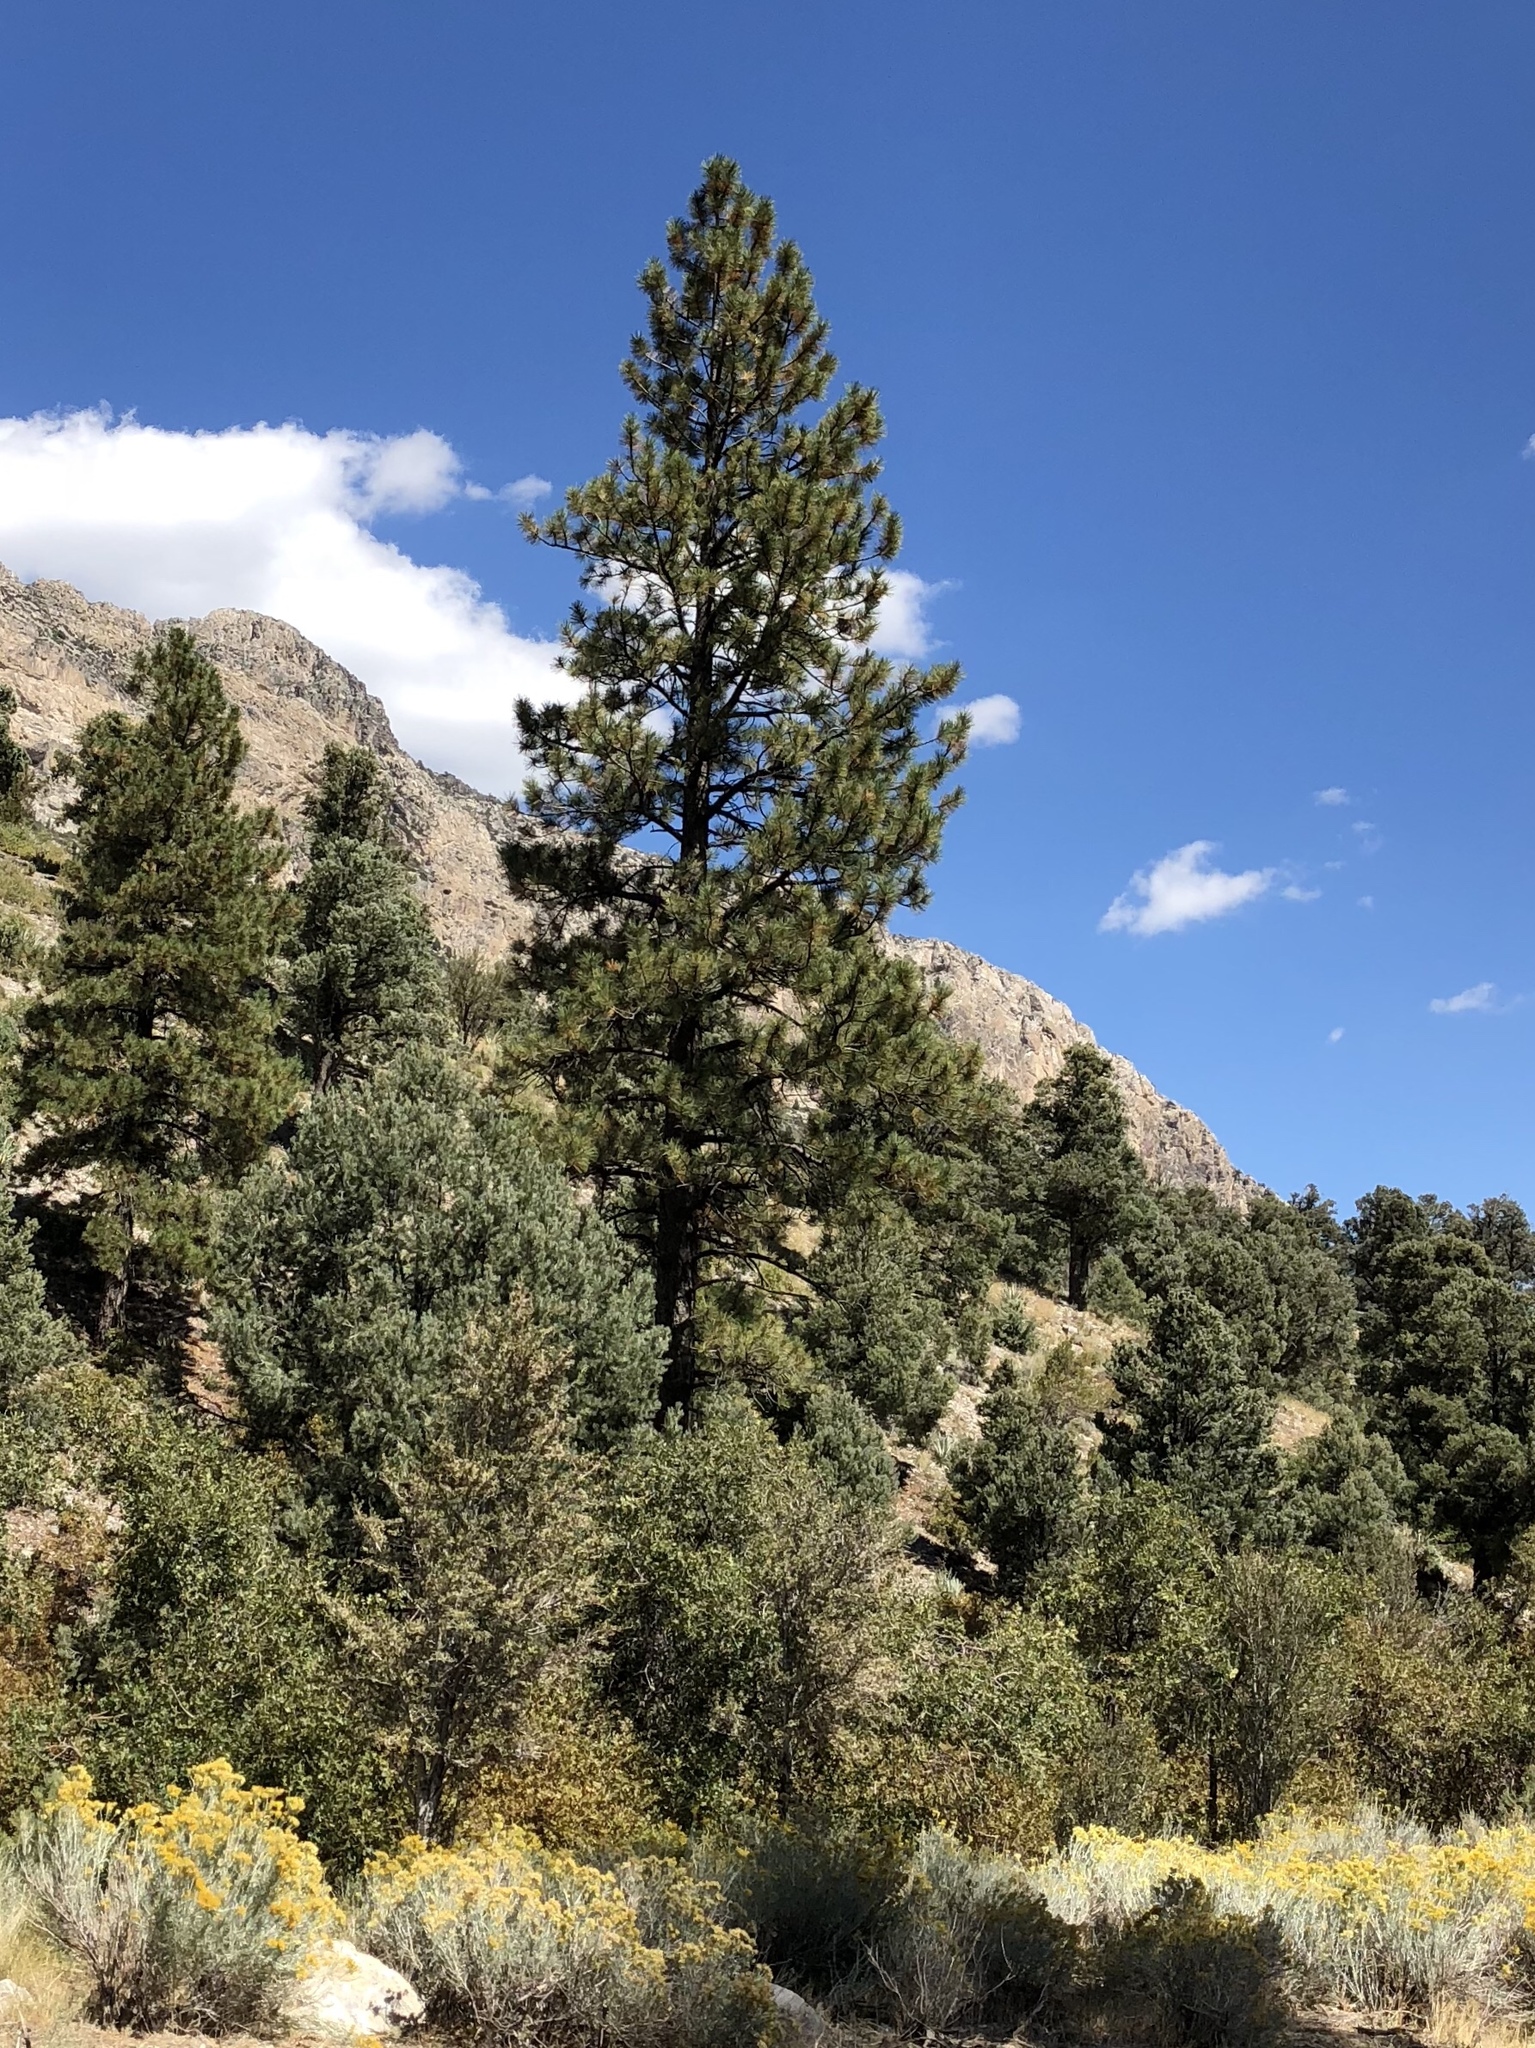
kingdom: Plantae
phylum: Tracheophyta
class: Pinopsida
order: Pinales
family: Pinaceae
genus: Pinus
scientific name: Pinus ponderosa
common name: Western yellow-pine
